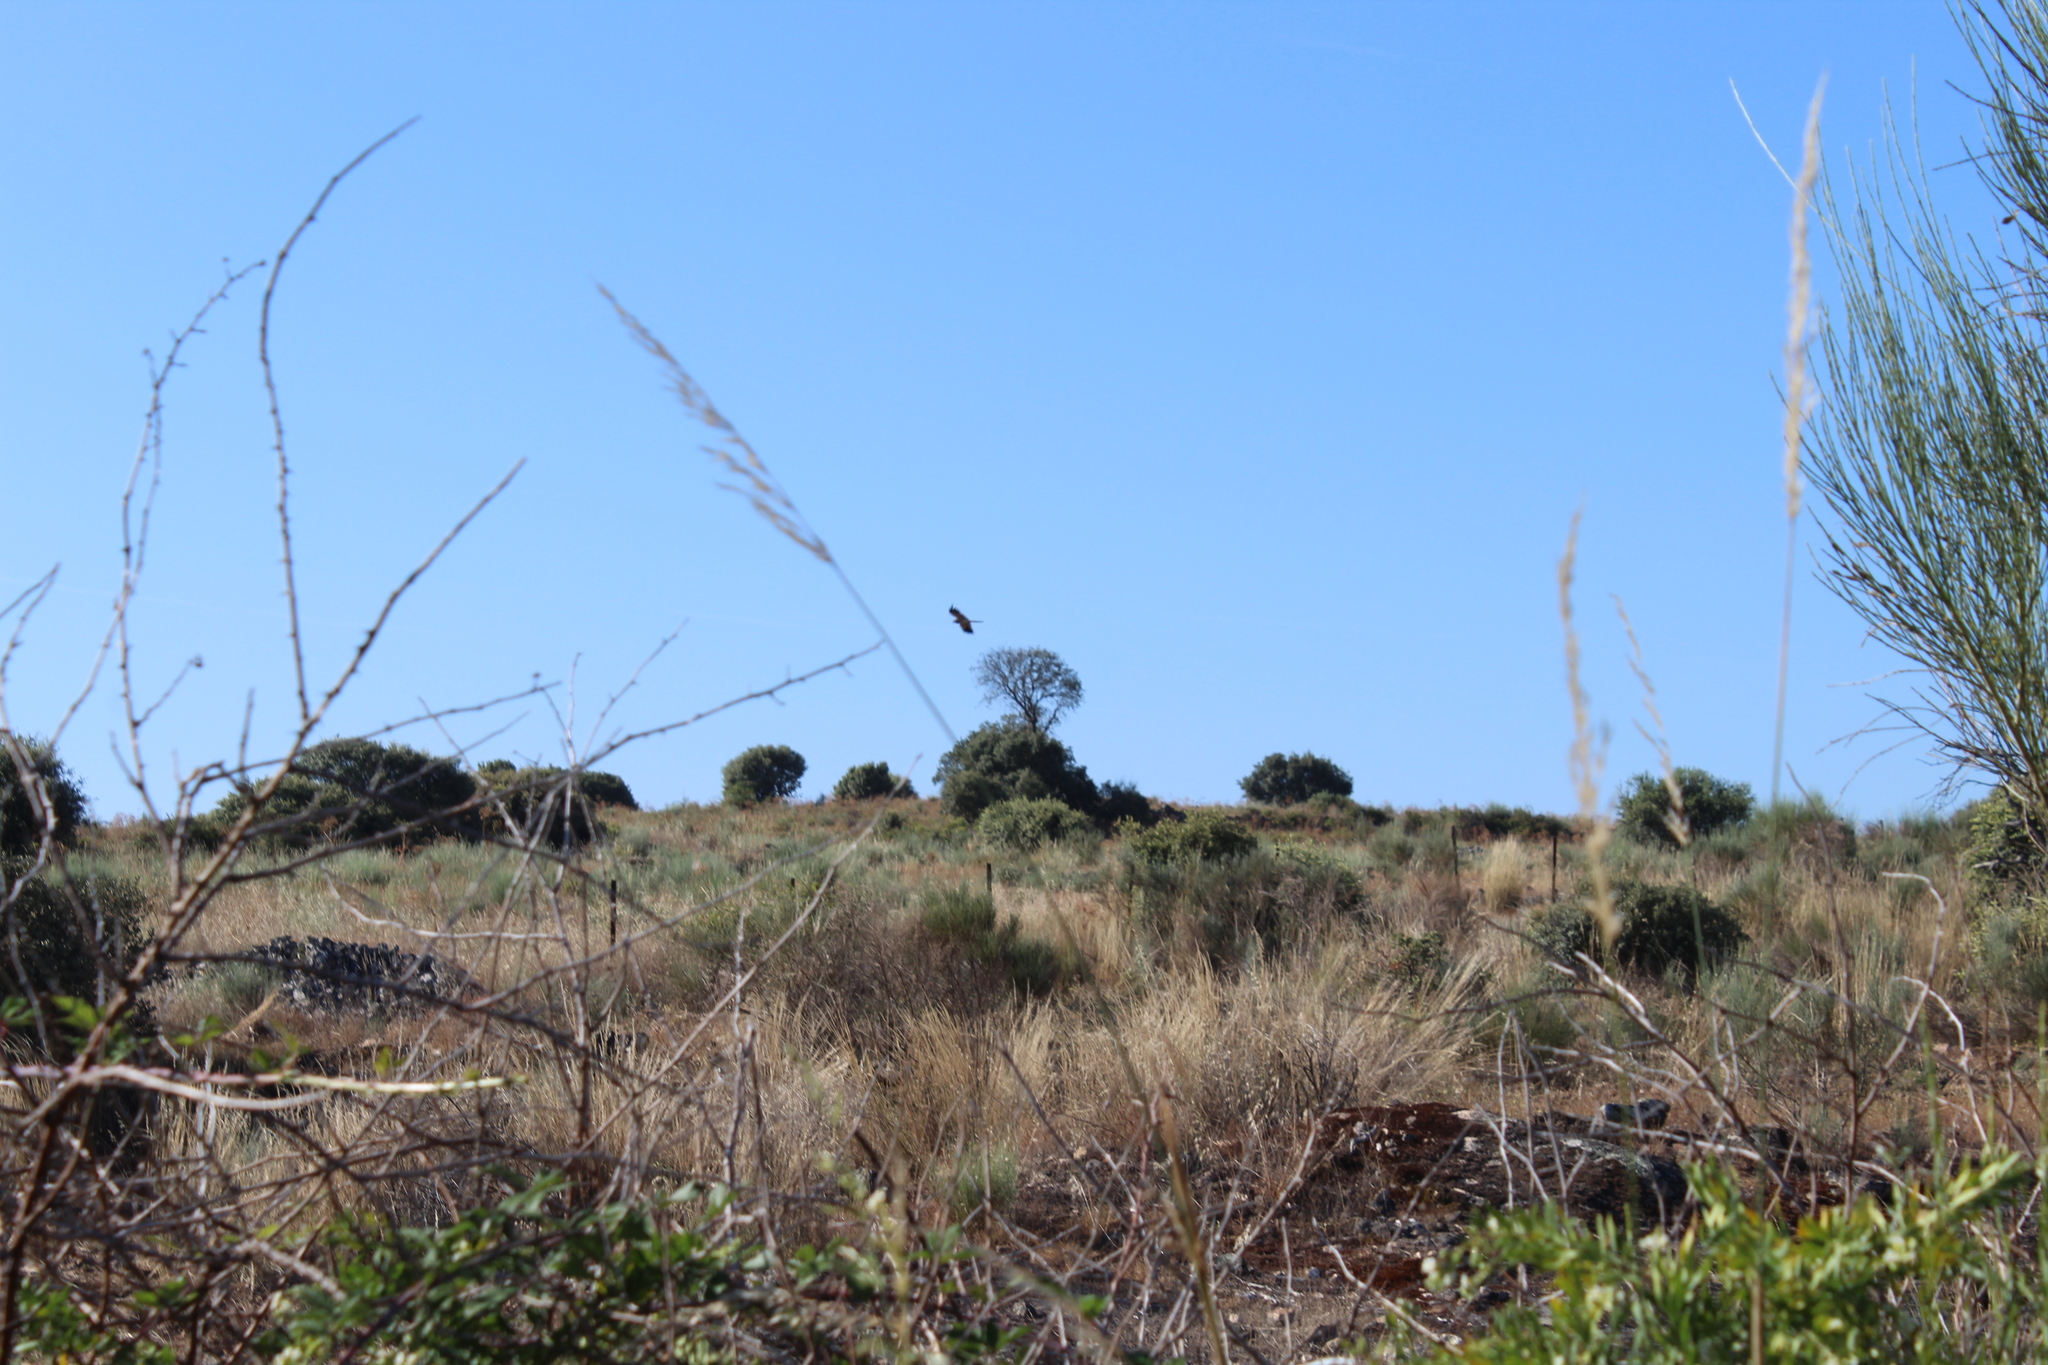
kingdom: Animalia
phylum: Chordata
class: Aves
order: Accipitriformes
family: Accipitridae
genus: Circus
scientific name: Circus pygargus
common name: Montagu's harrier
